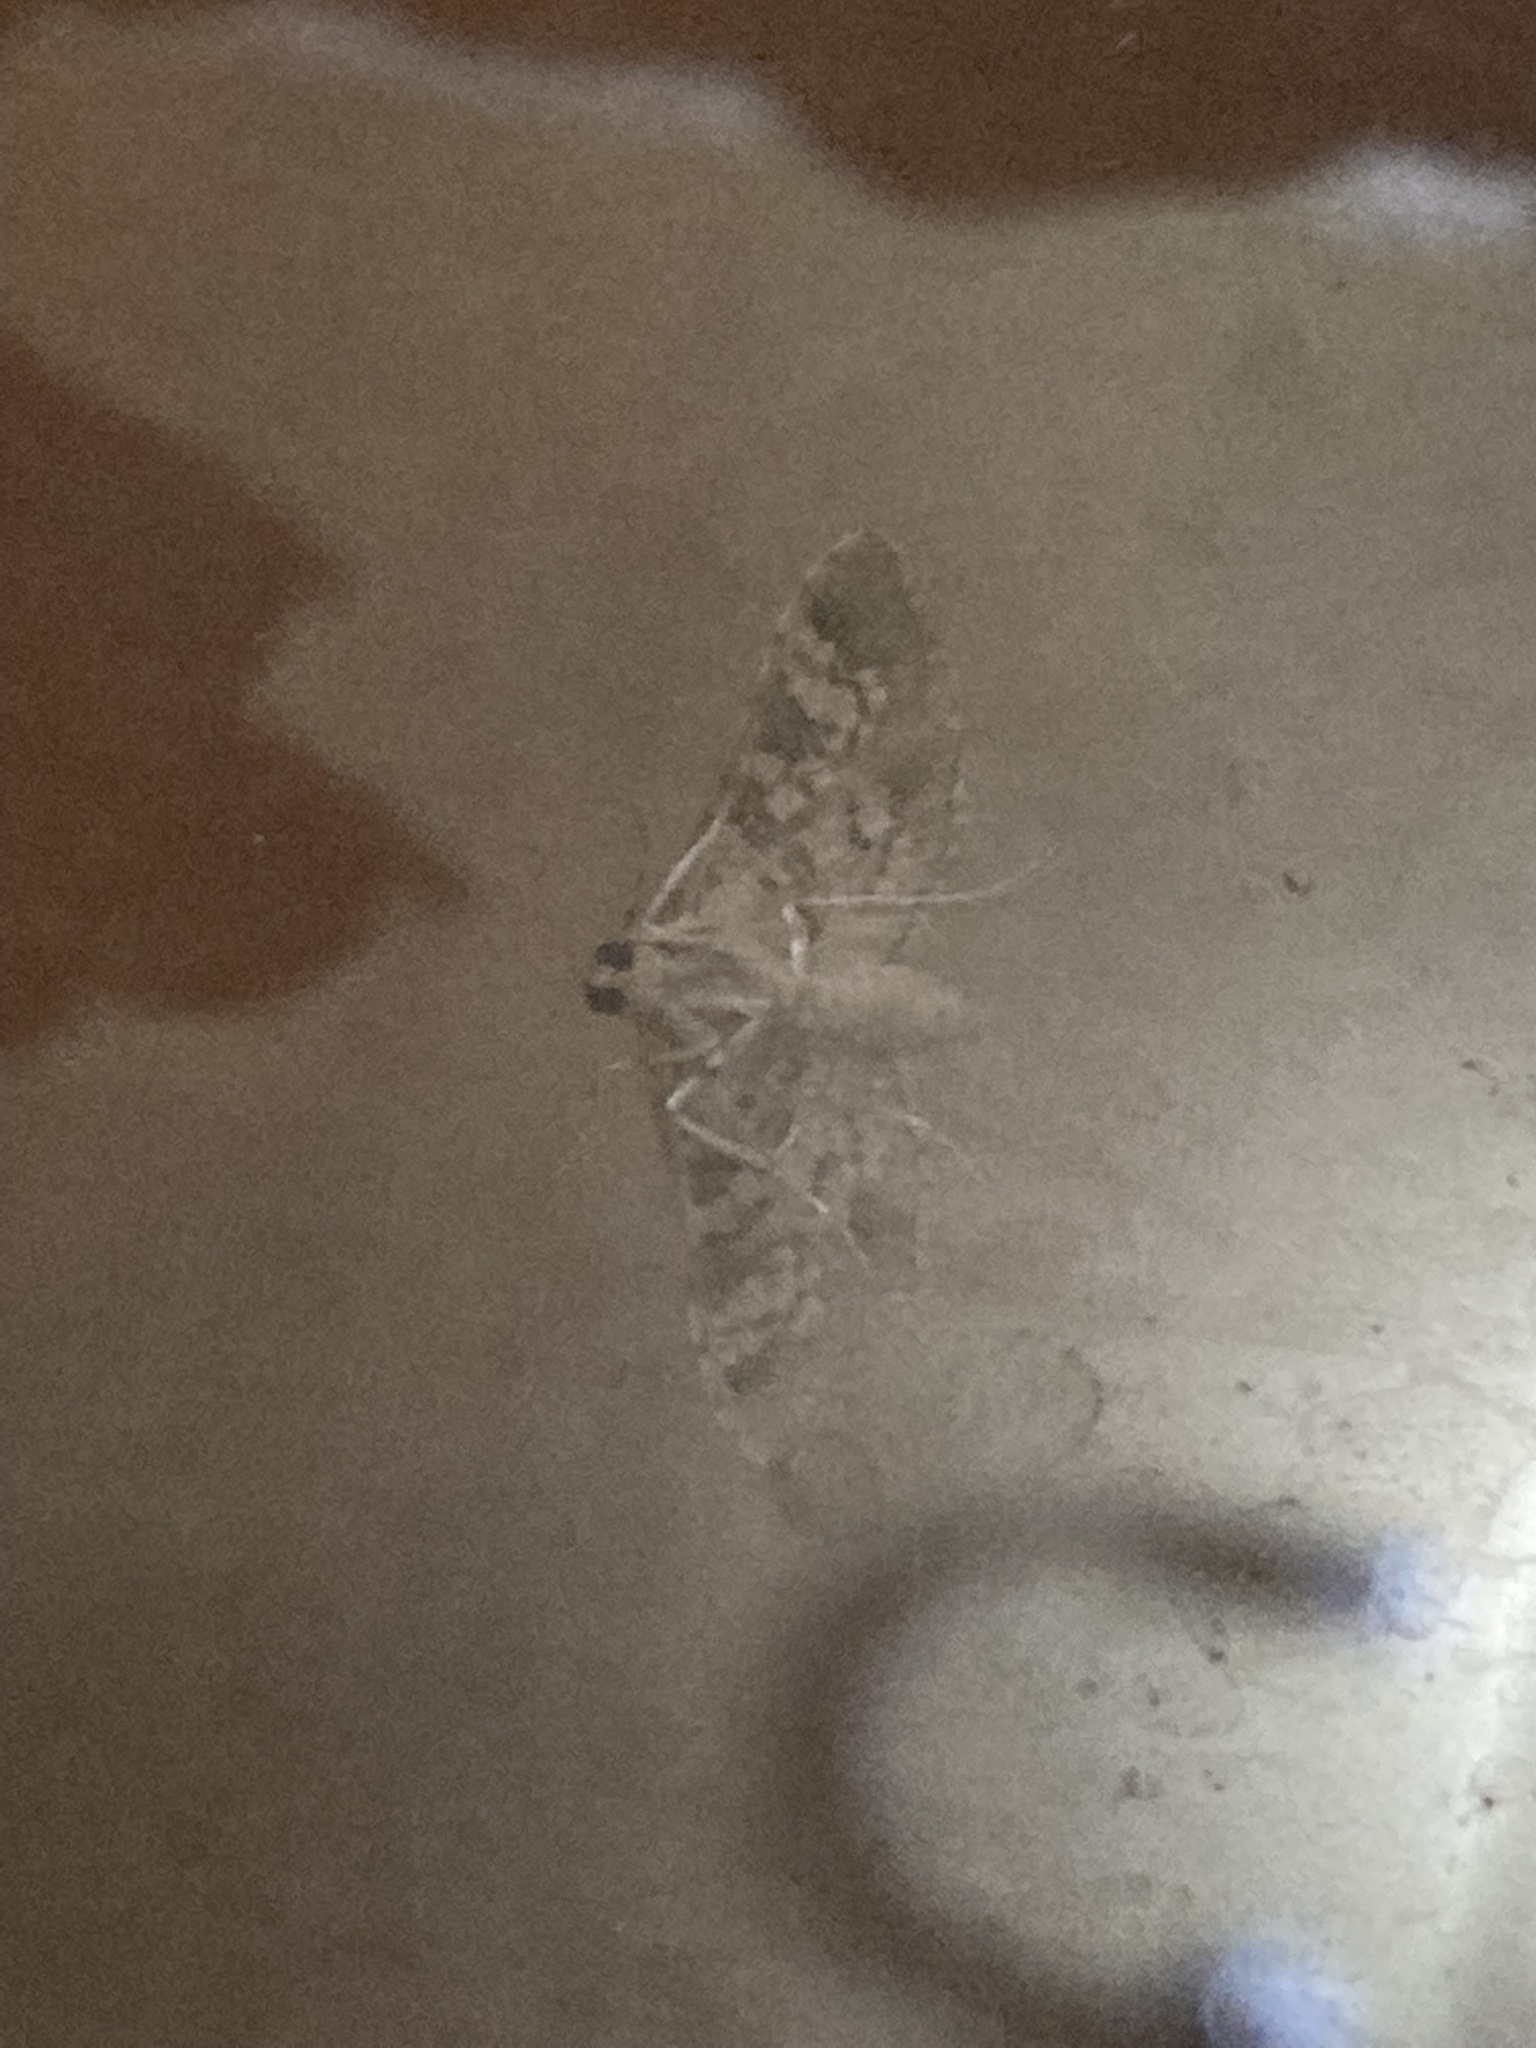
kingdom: Animalia
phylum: Arthropoda
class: Insecta
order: Lepidoptera
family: Crambidae
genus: Samea
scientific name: Samea ecclesialis
